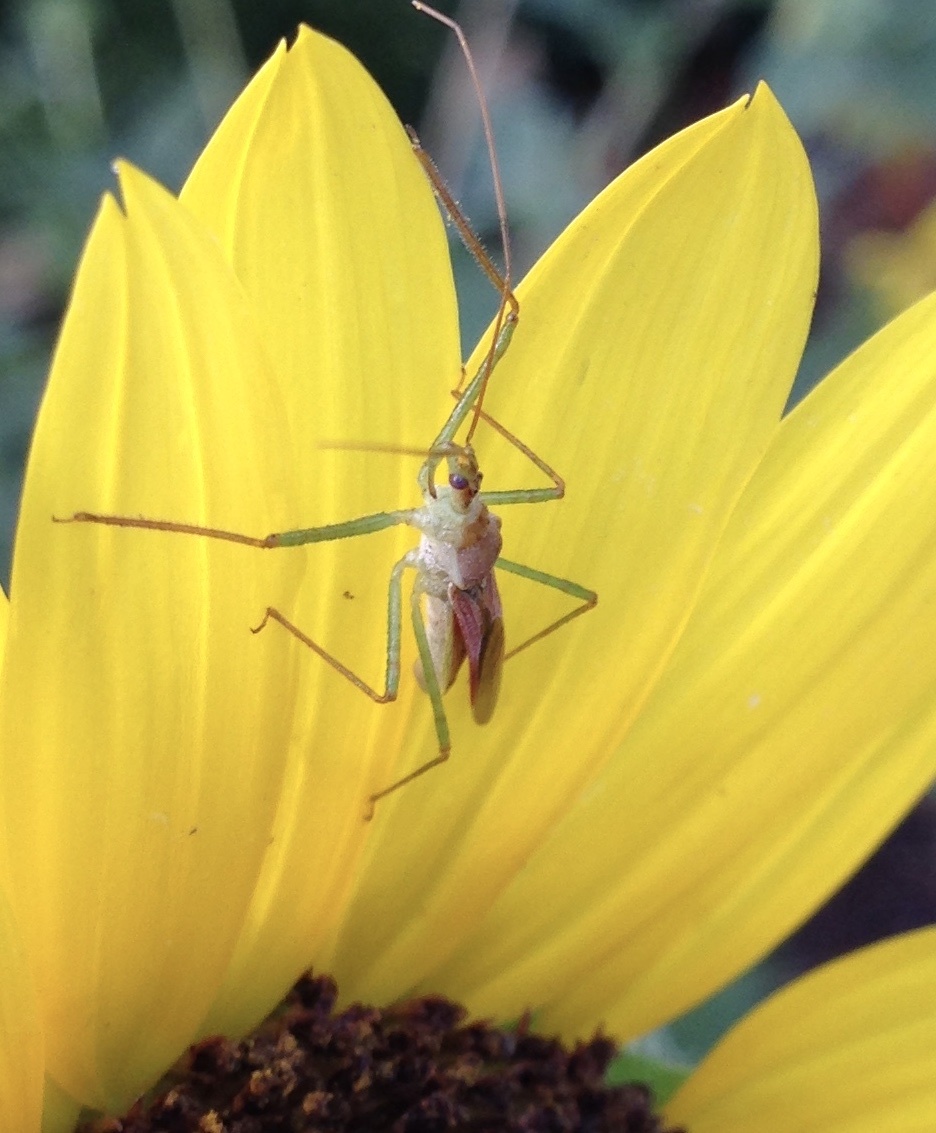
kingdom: Animalia
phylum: Arthropoda
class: Insecta
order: Hemiptera
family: Reduviidae
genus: Zelus
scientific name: Zelus renardii
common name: Assassin bug
